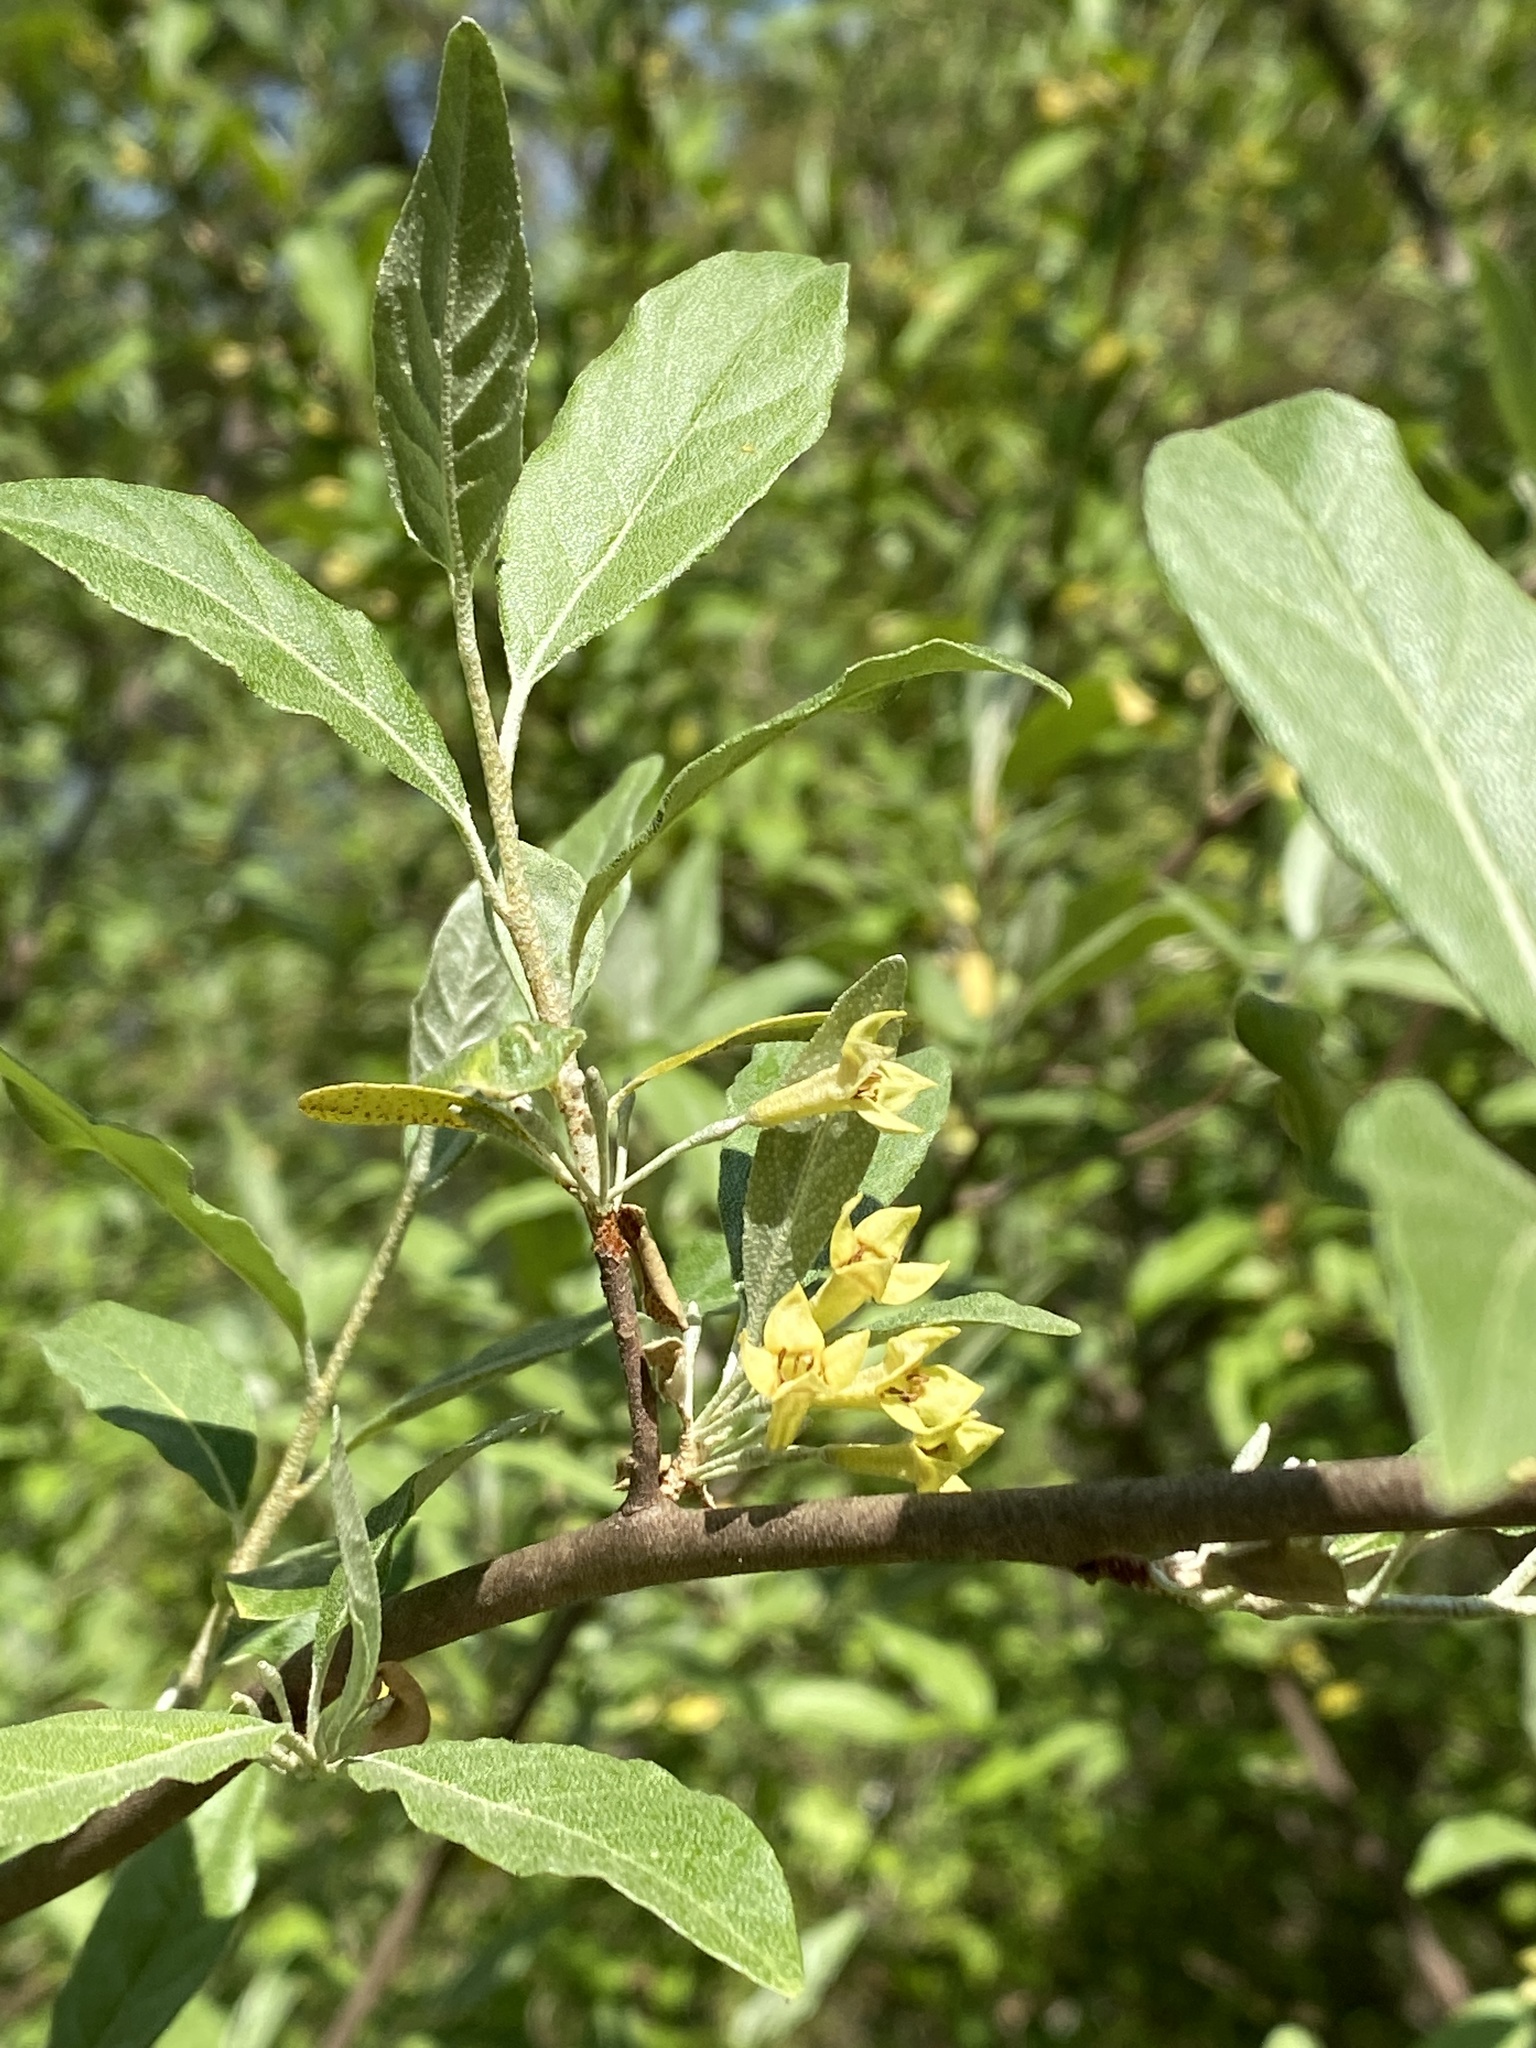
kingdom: Plantae
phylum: Tracheophyta
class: Magnoliopsida
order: Rosales
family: Elaeagnaceae
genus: Elaeagnus
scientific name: Elaeagnus umbellata
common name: Autumn olive
